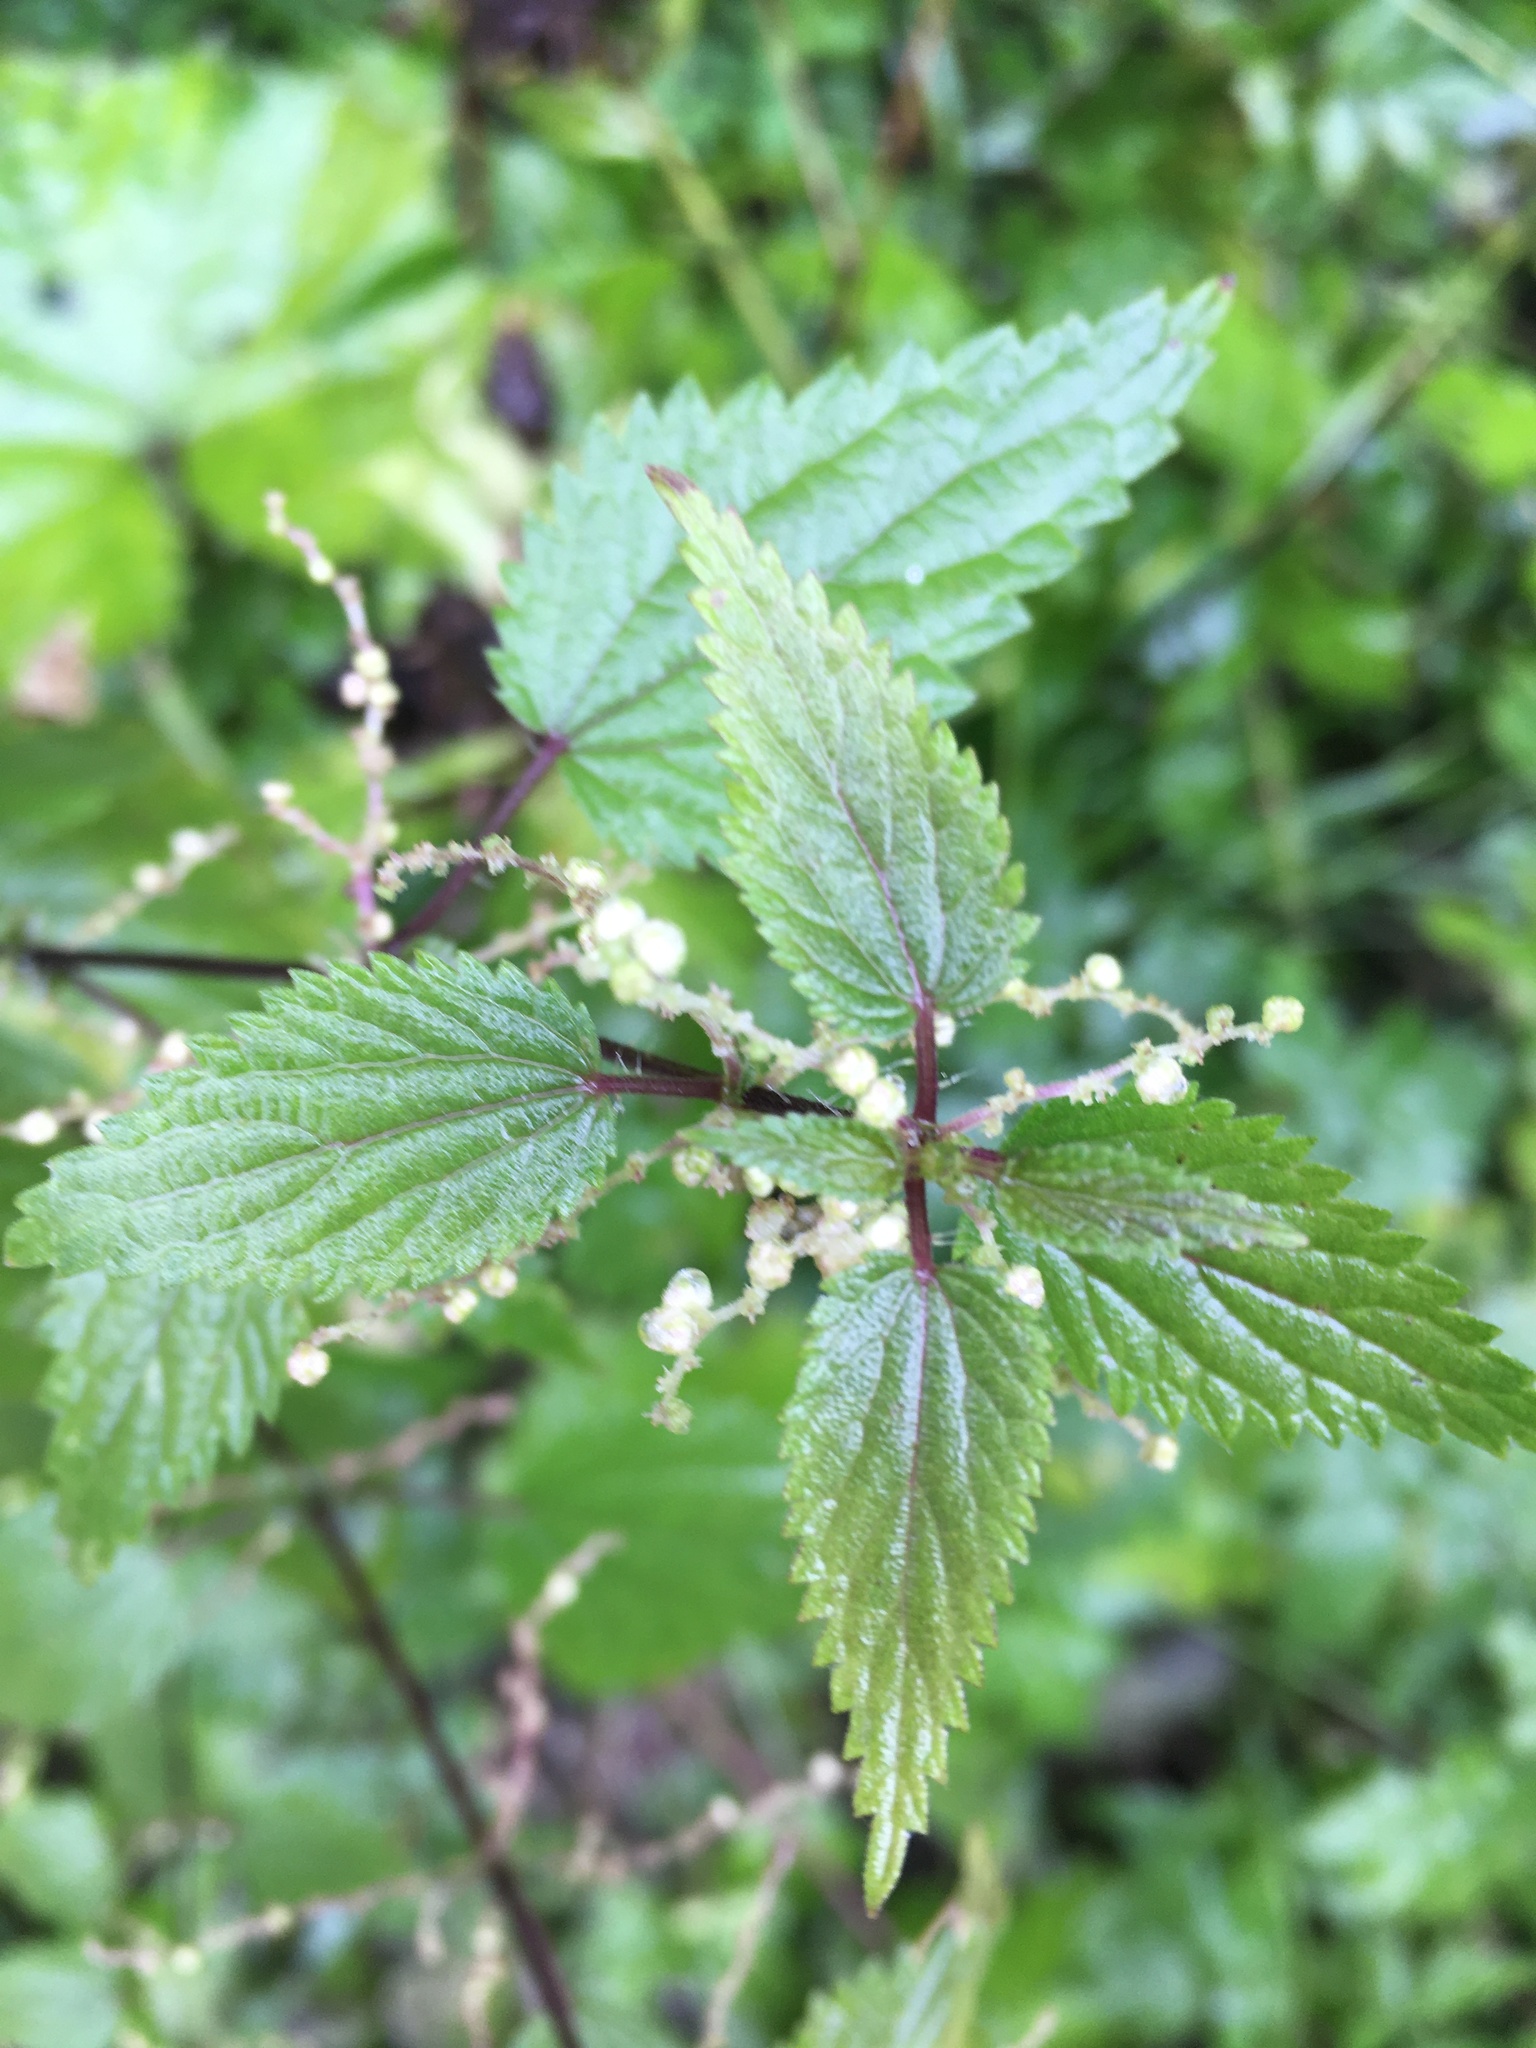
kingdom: Plantae
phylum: Tracheophyta
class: Magnoliopsida
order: Rosales
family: Urticaceae
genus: Urtica
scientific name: Urtica dioica
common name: Common nettle
